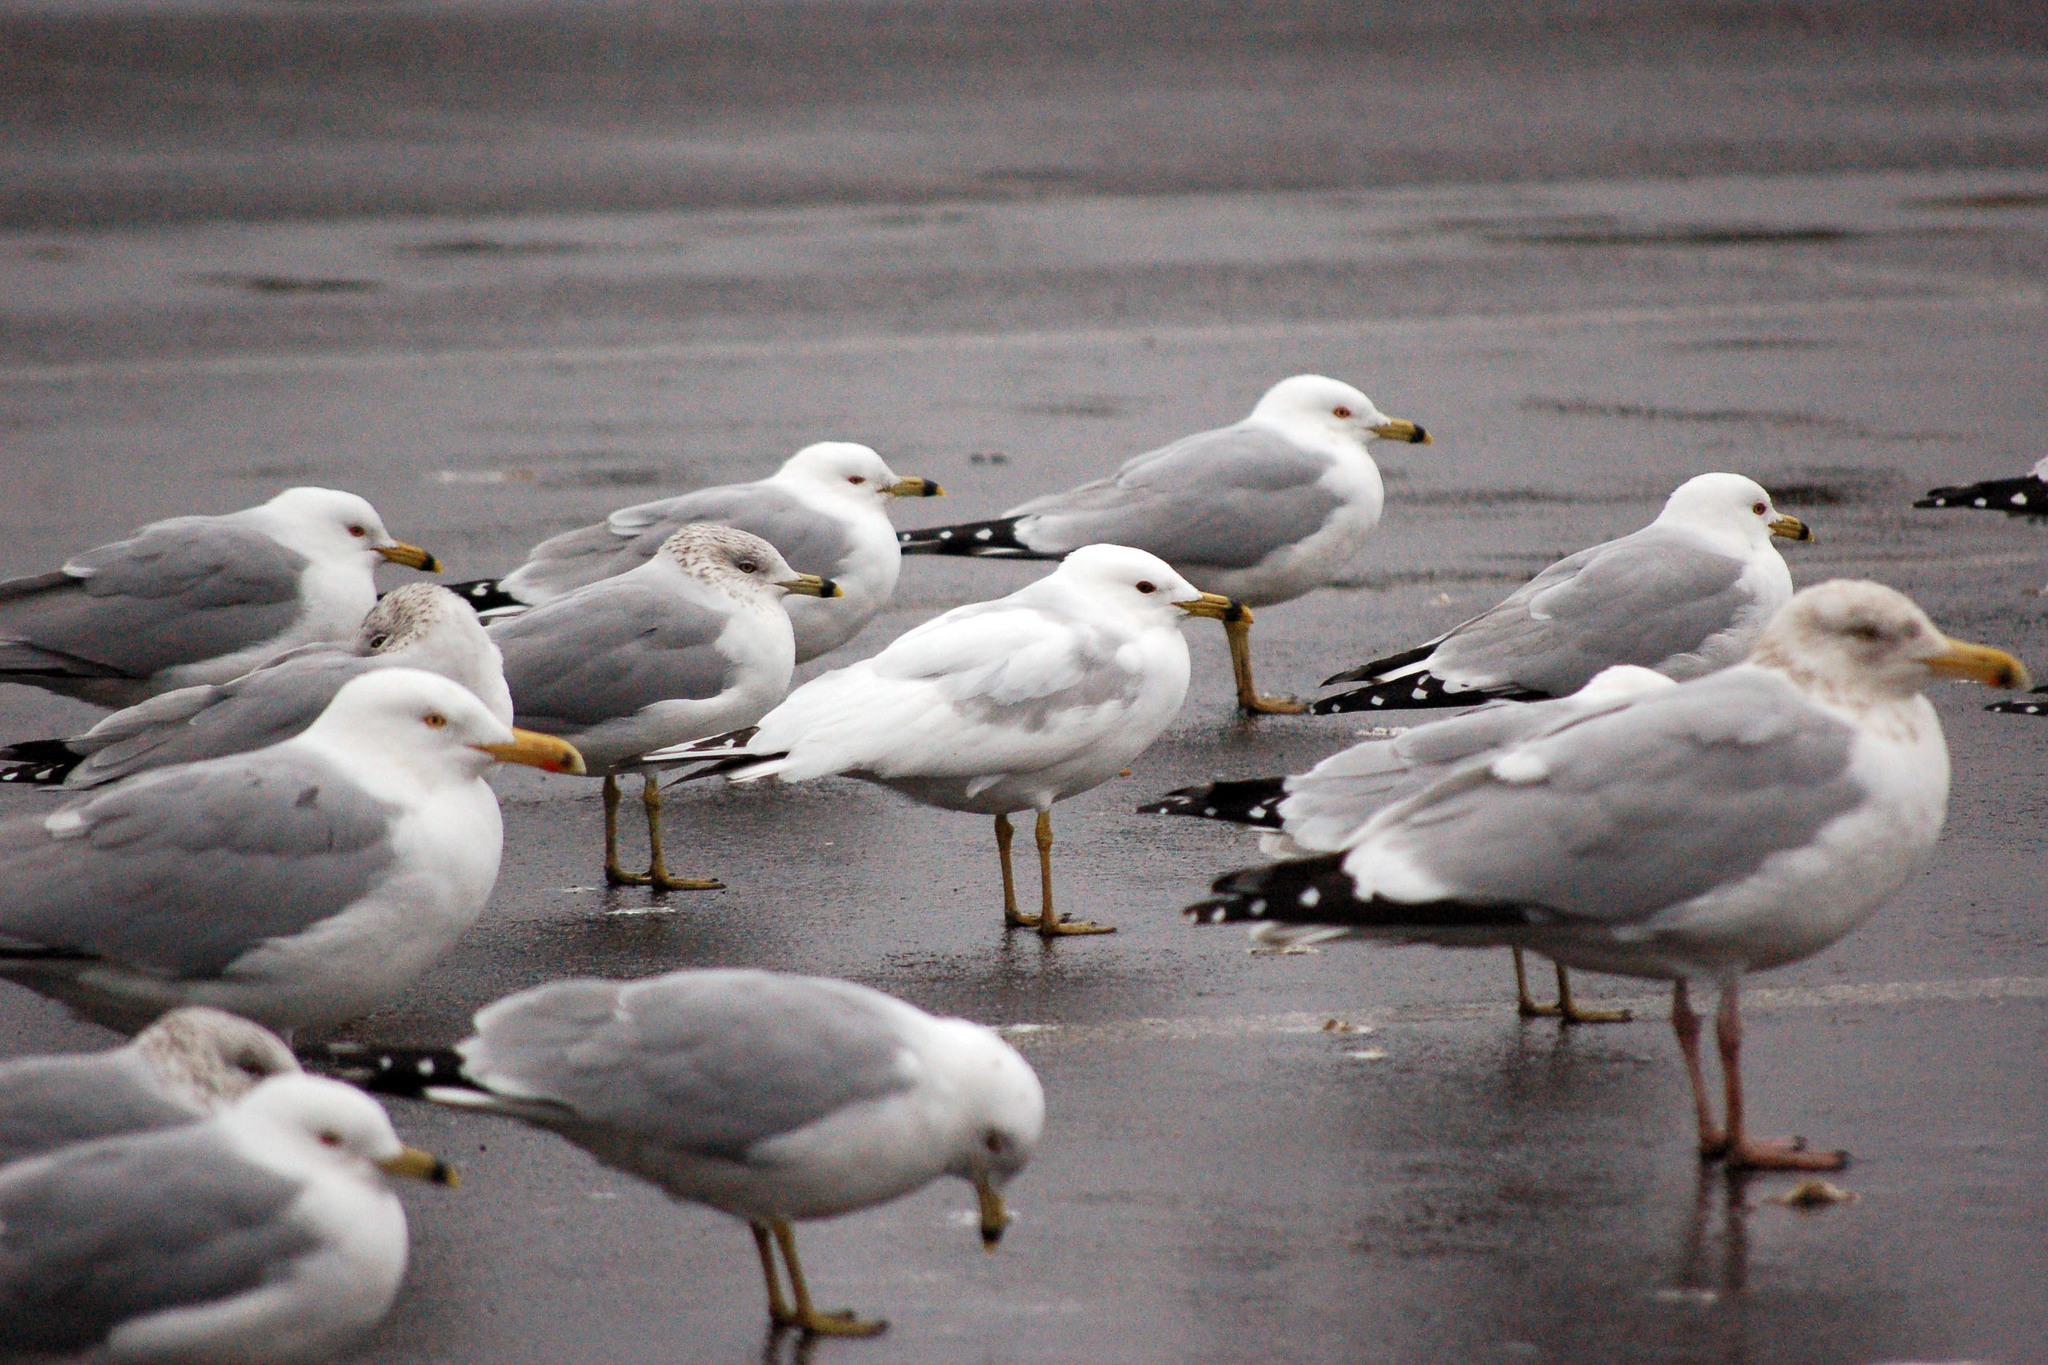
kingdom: Animalia
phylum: Chordata
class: Aves
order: Charadriiformes
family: Laridae
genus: Larus
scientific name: Larus delawarensis
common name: Ring-billed gull
